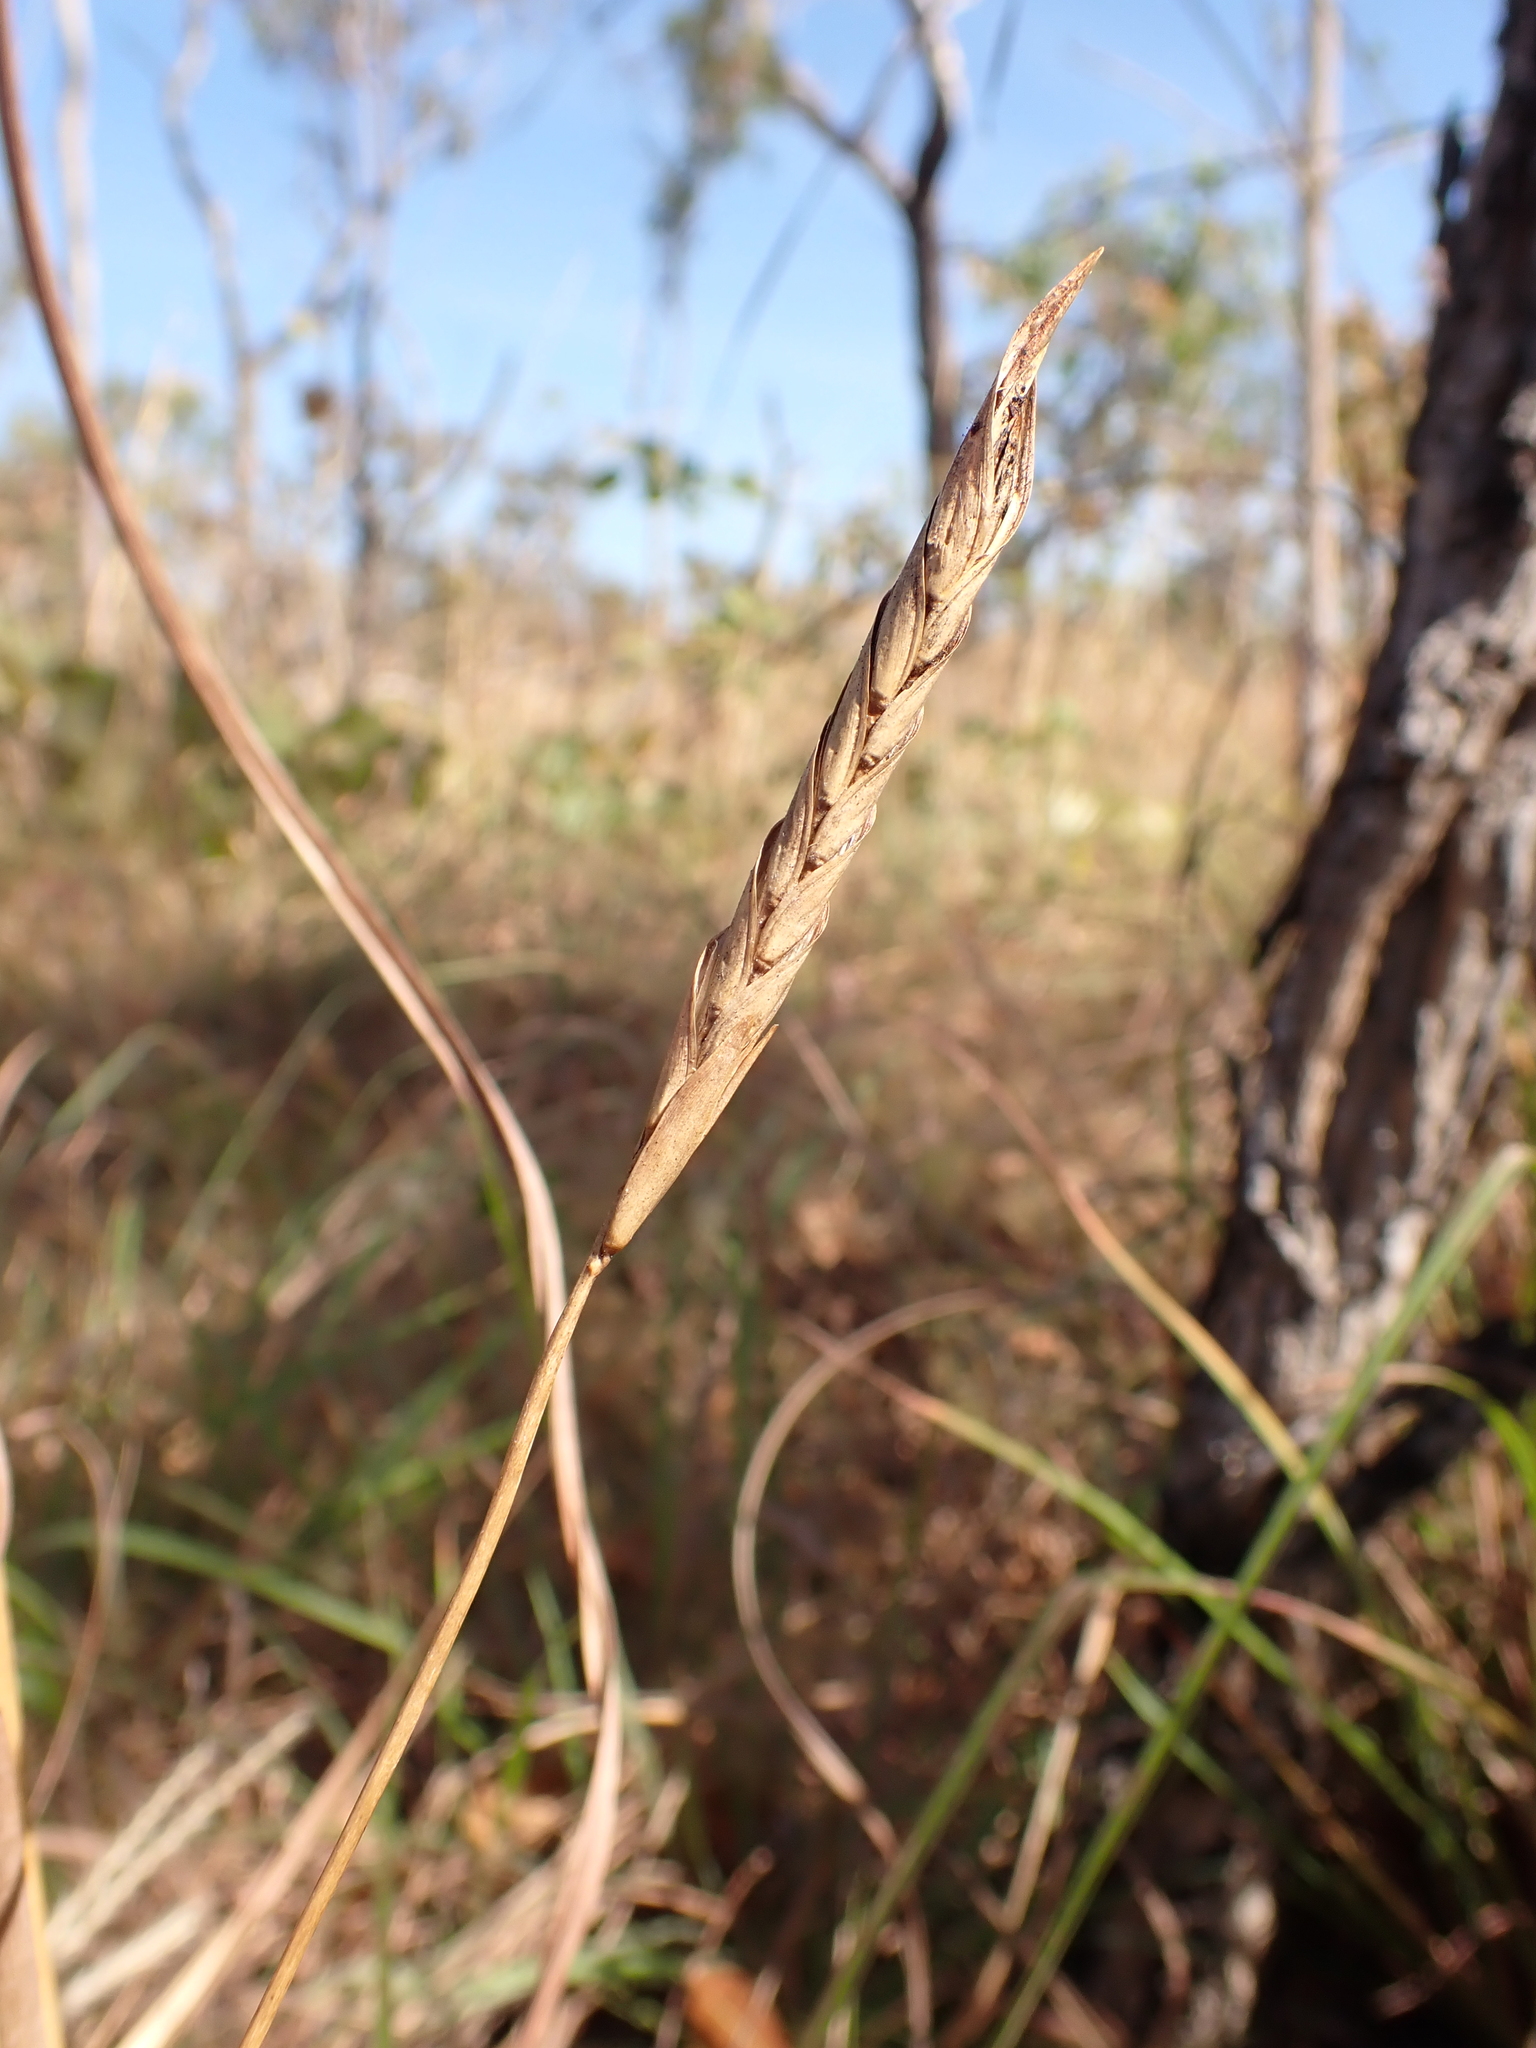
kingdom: Plantae
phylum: Tracheophyta
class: Liliopsida
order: Poales
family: Poaceae
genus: Heteropogon
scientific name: Heteropogon triticeus
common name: Sugar grass
